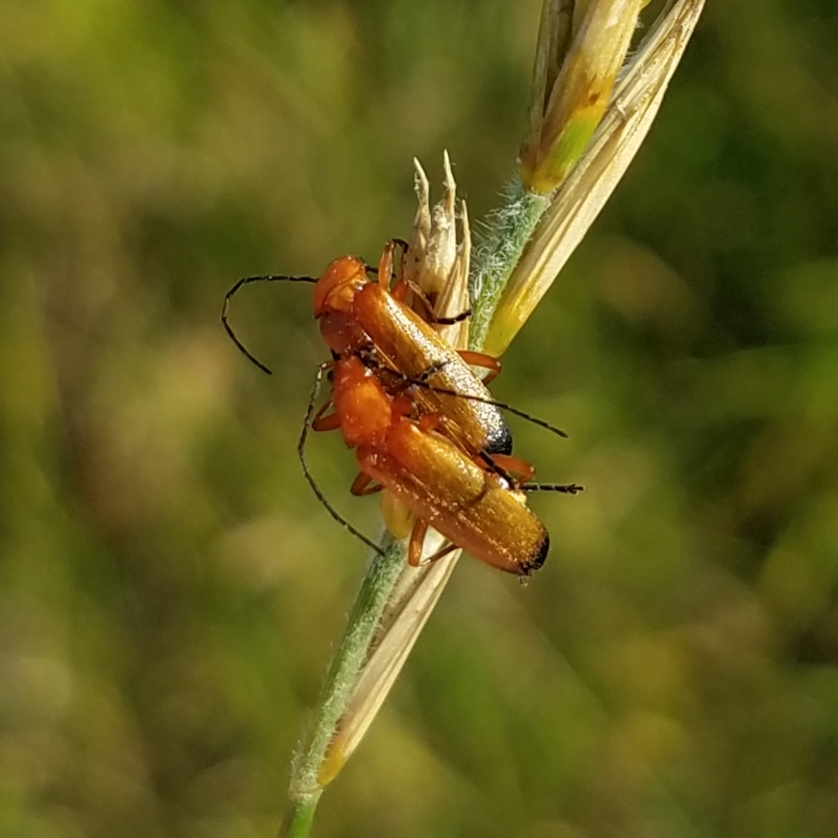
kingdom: Animalia
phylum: Arthropoda
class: Insecta
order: Coleoptera
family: Cantharidae
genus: Rhagonycha
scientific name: Rhagonycha fulva
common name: Common red soldier beetle
